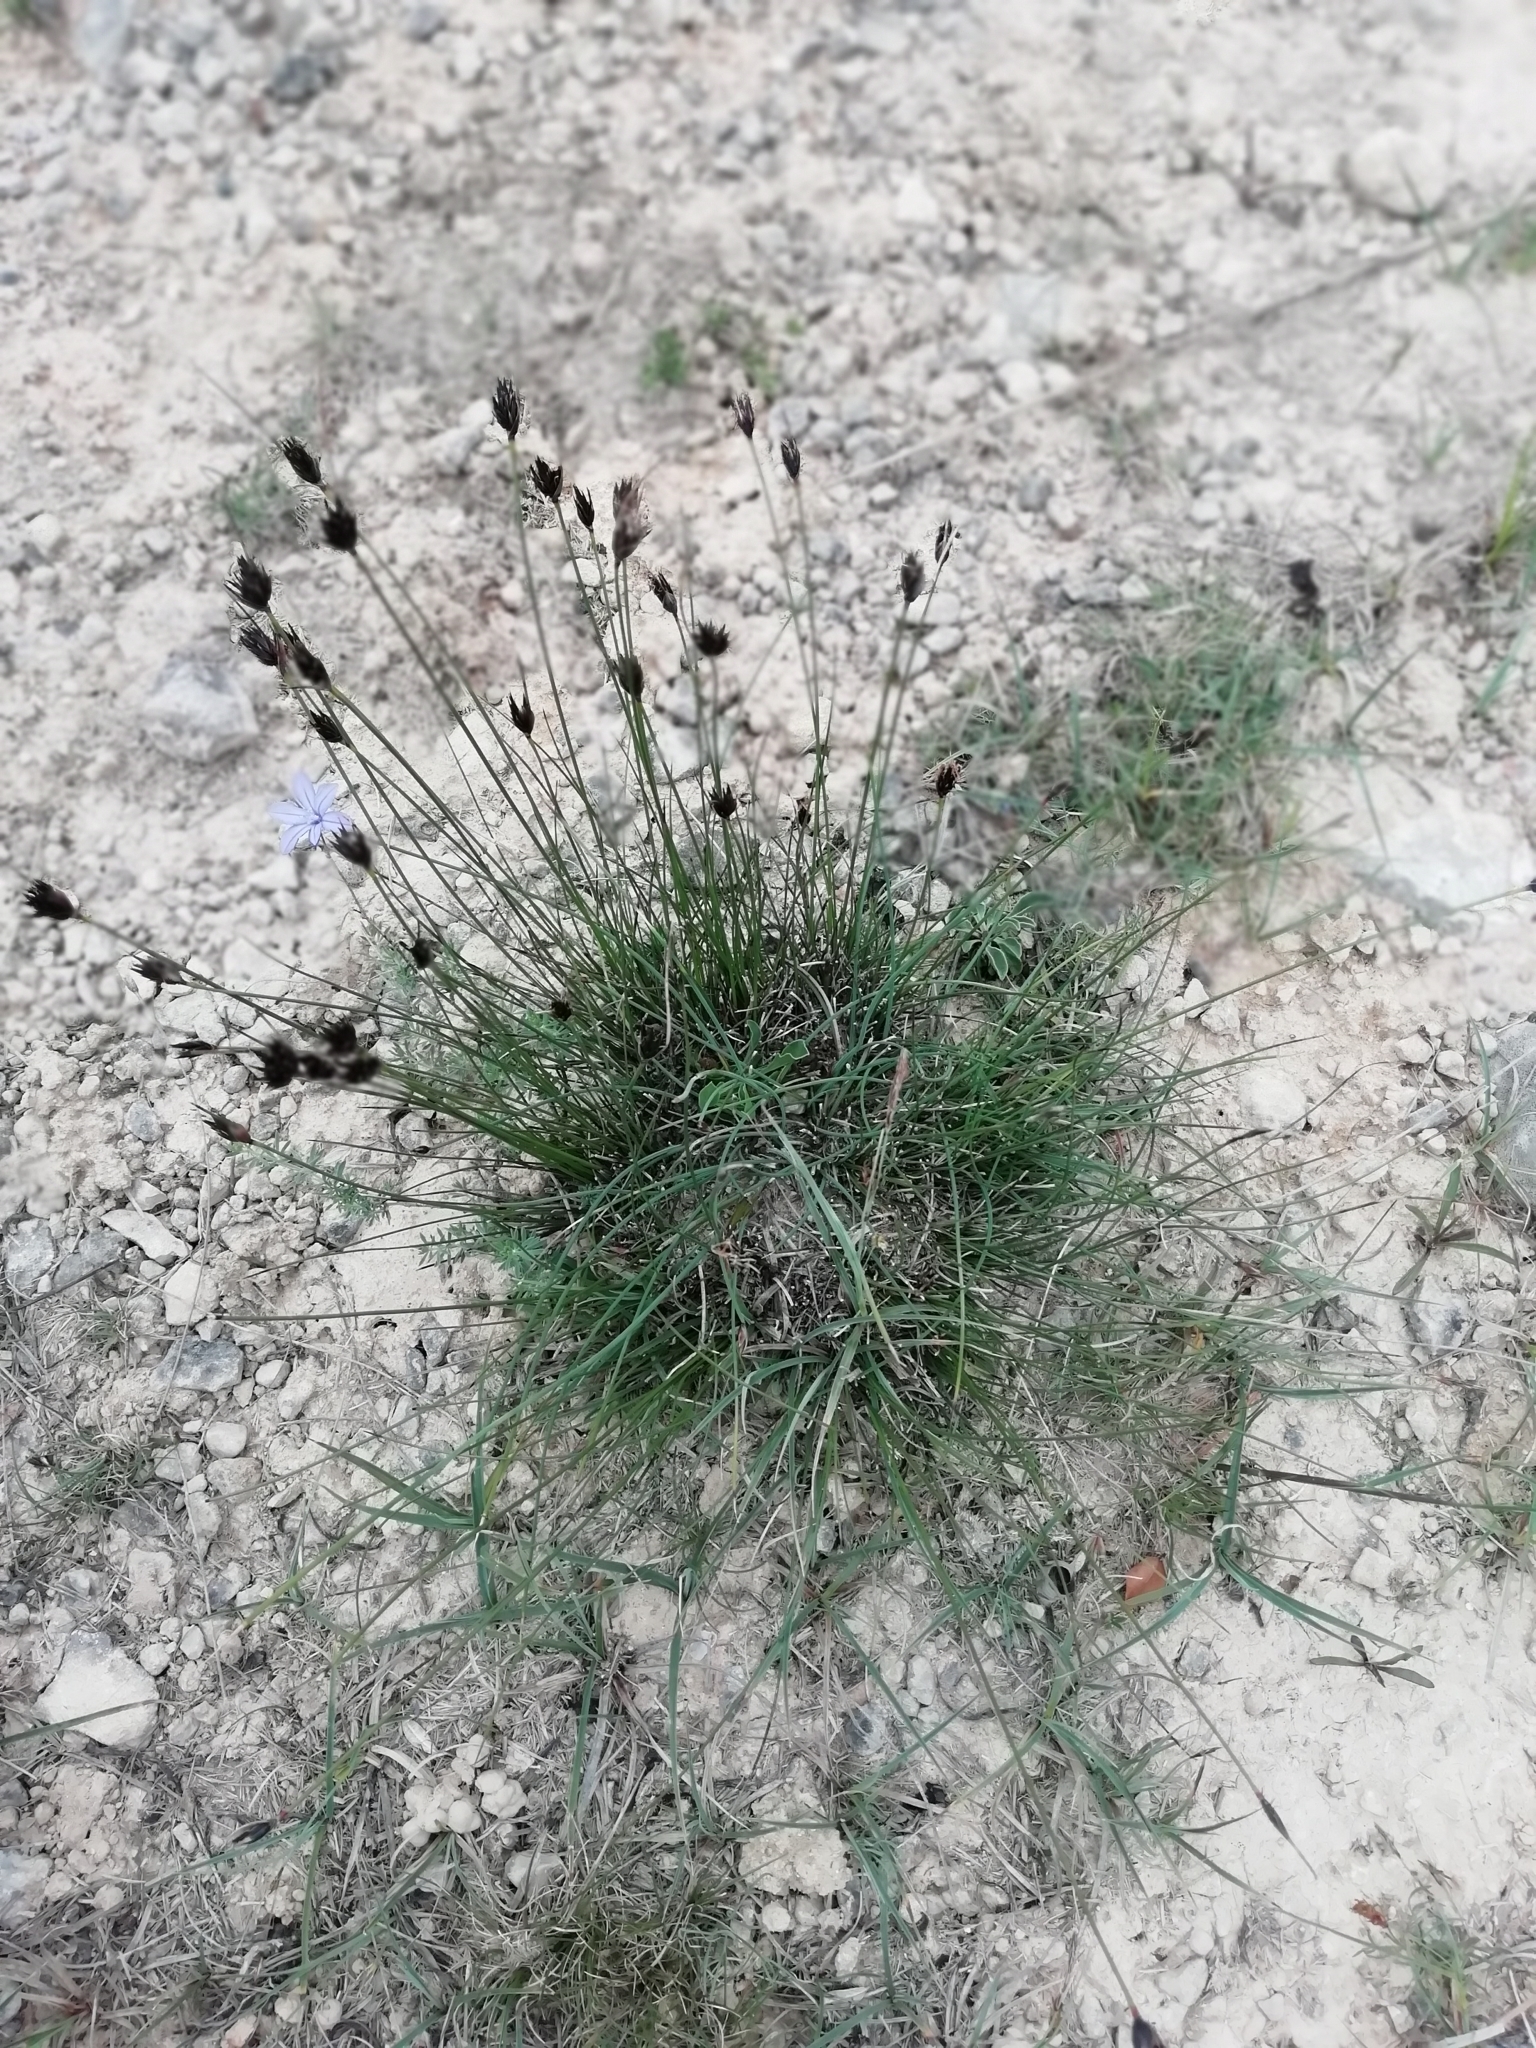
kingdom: Plantae
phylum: Tracheophyta
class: Liliopsida
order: Poales
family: Cyperaceae
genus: Schoenus
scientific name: Schoenus nigricans
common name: Black bog-rush
